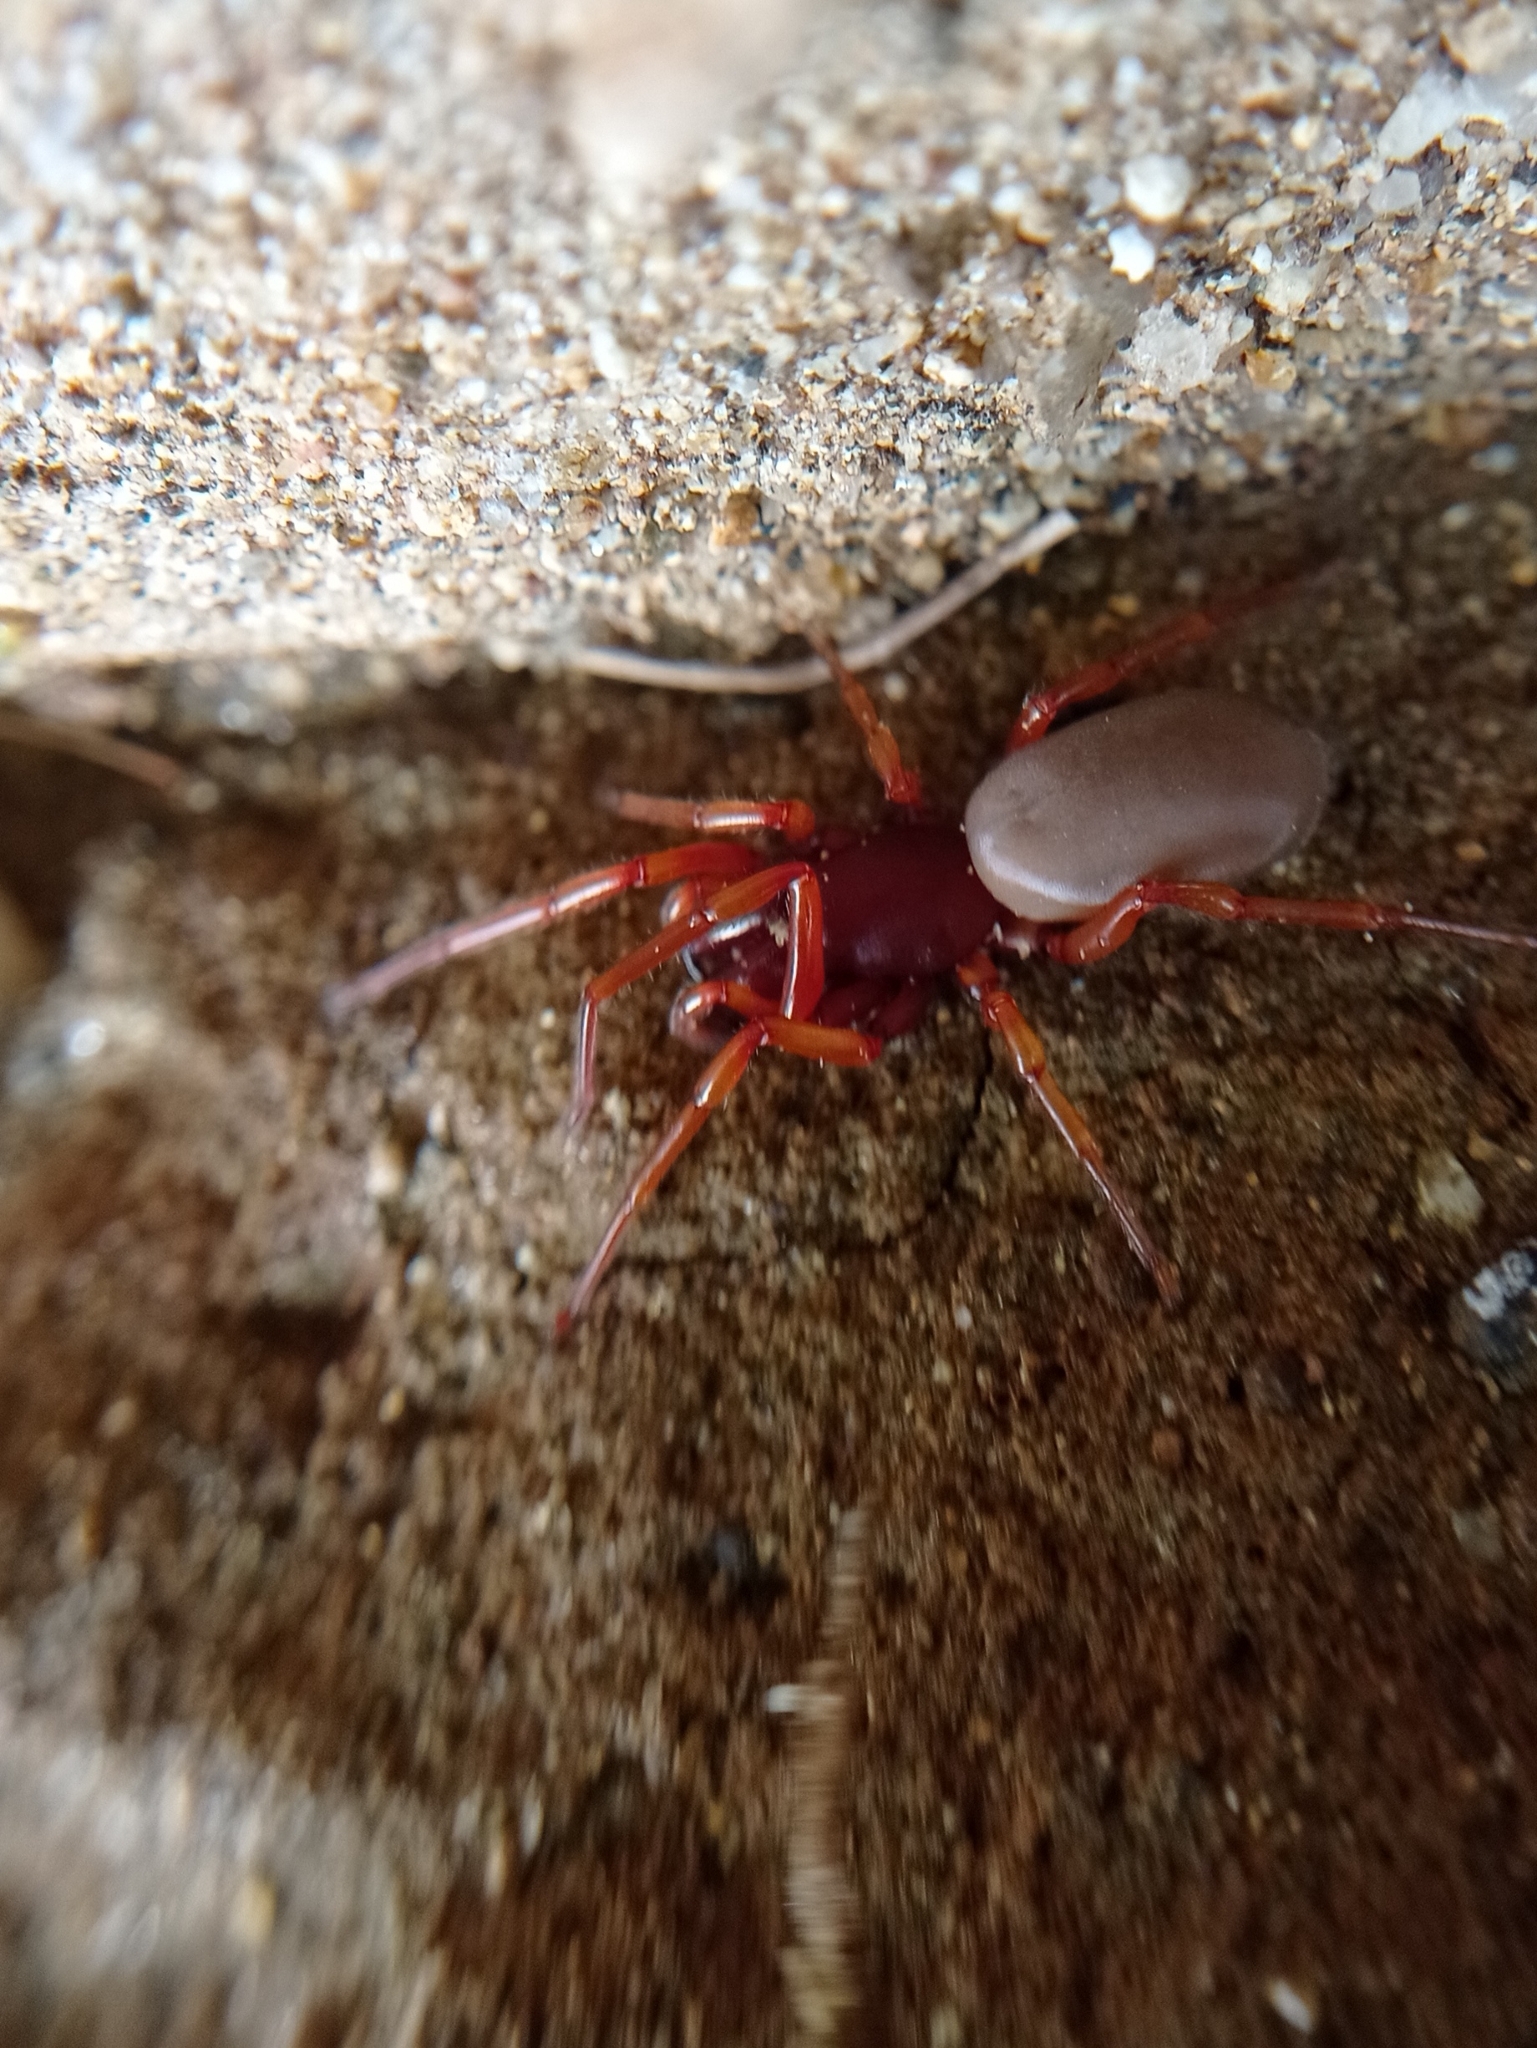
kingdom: Animalia
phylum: Arthropoda
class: Arachnida
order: Araneae
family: Dysderidae
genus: Dysdera
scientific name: Dysdera crocata
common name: Woodlouse spider
